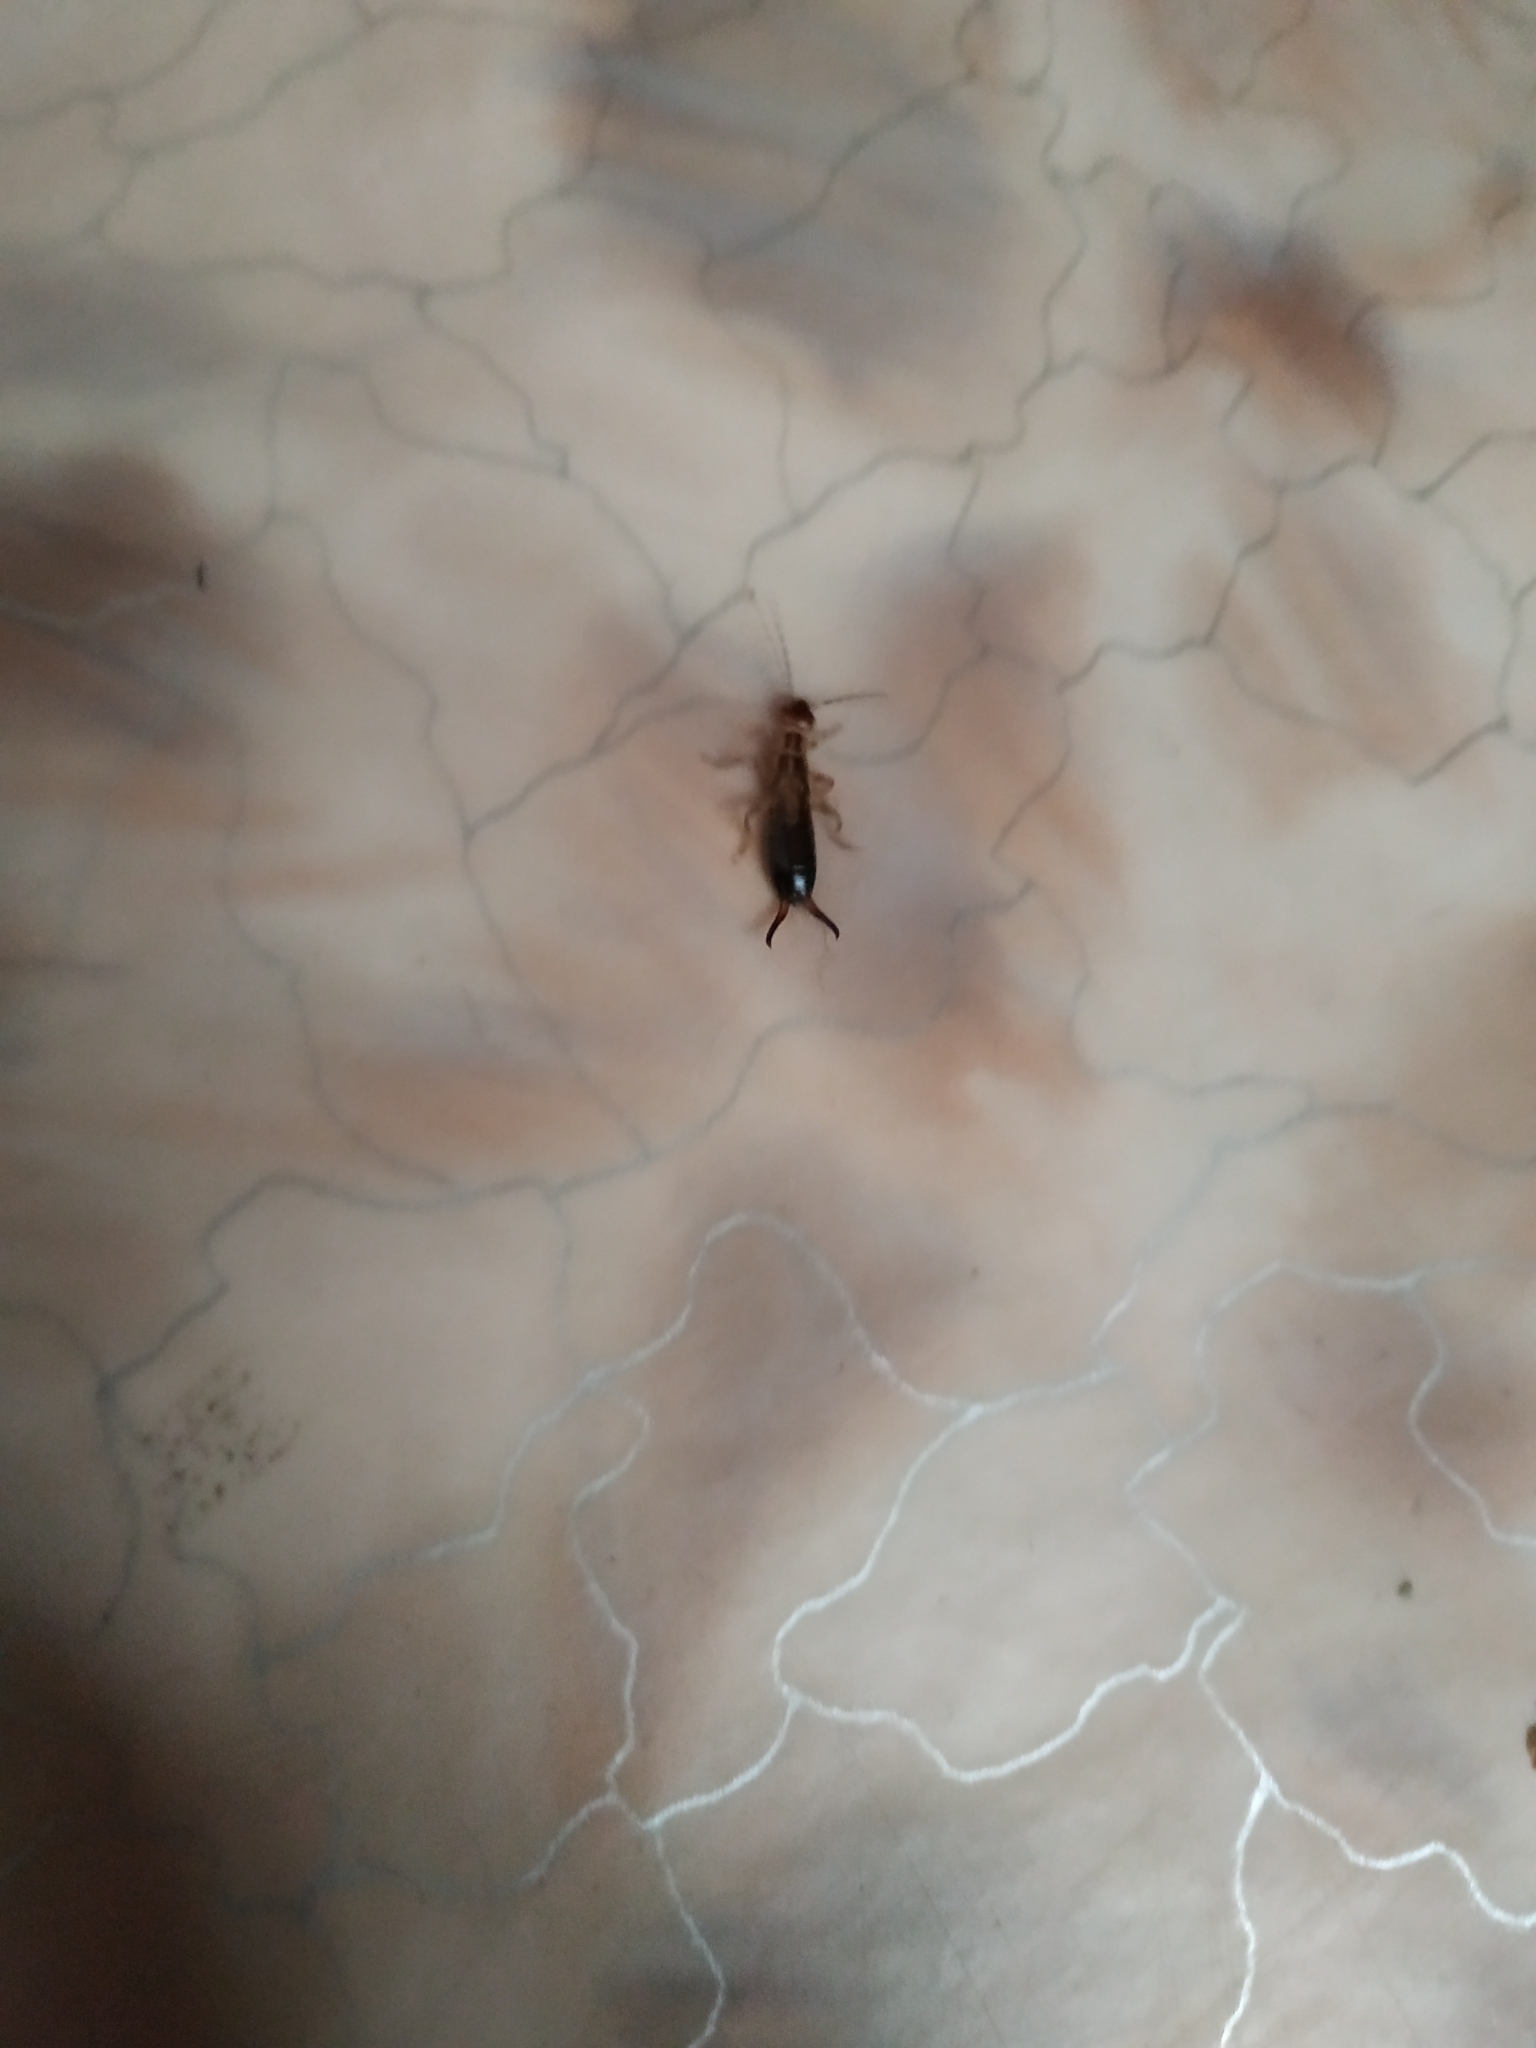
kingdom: Animalia
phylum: Arthropoda
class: Insecta
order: Dermaptera
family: Forficulidae
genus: Forficula
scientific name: Forficula
